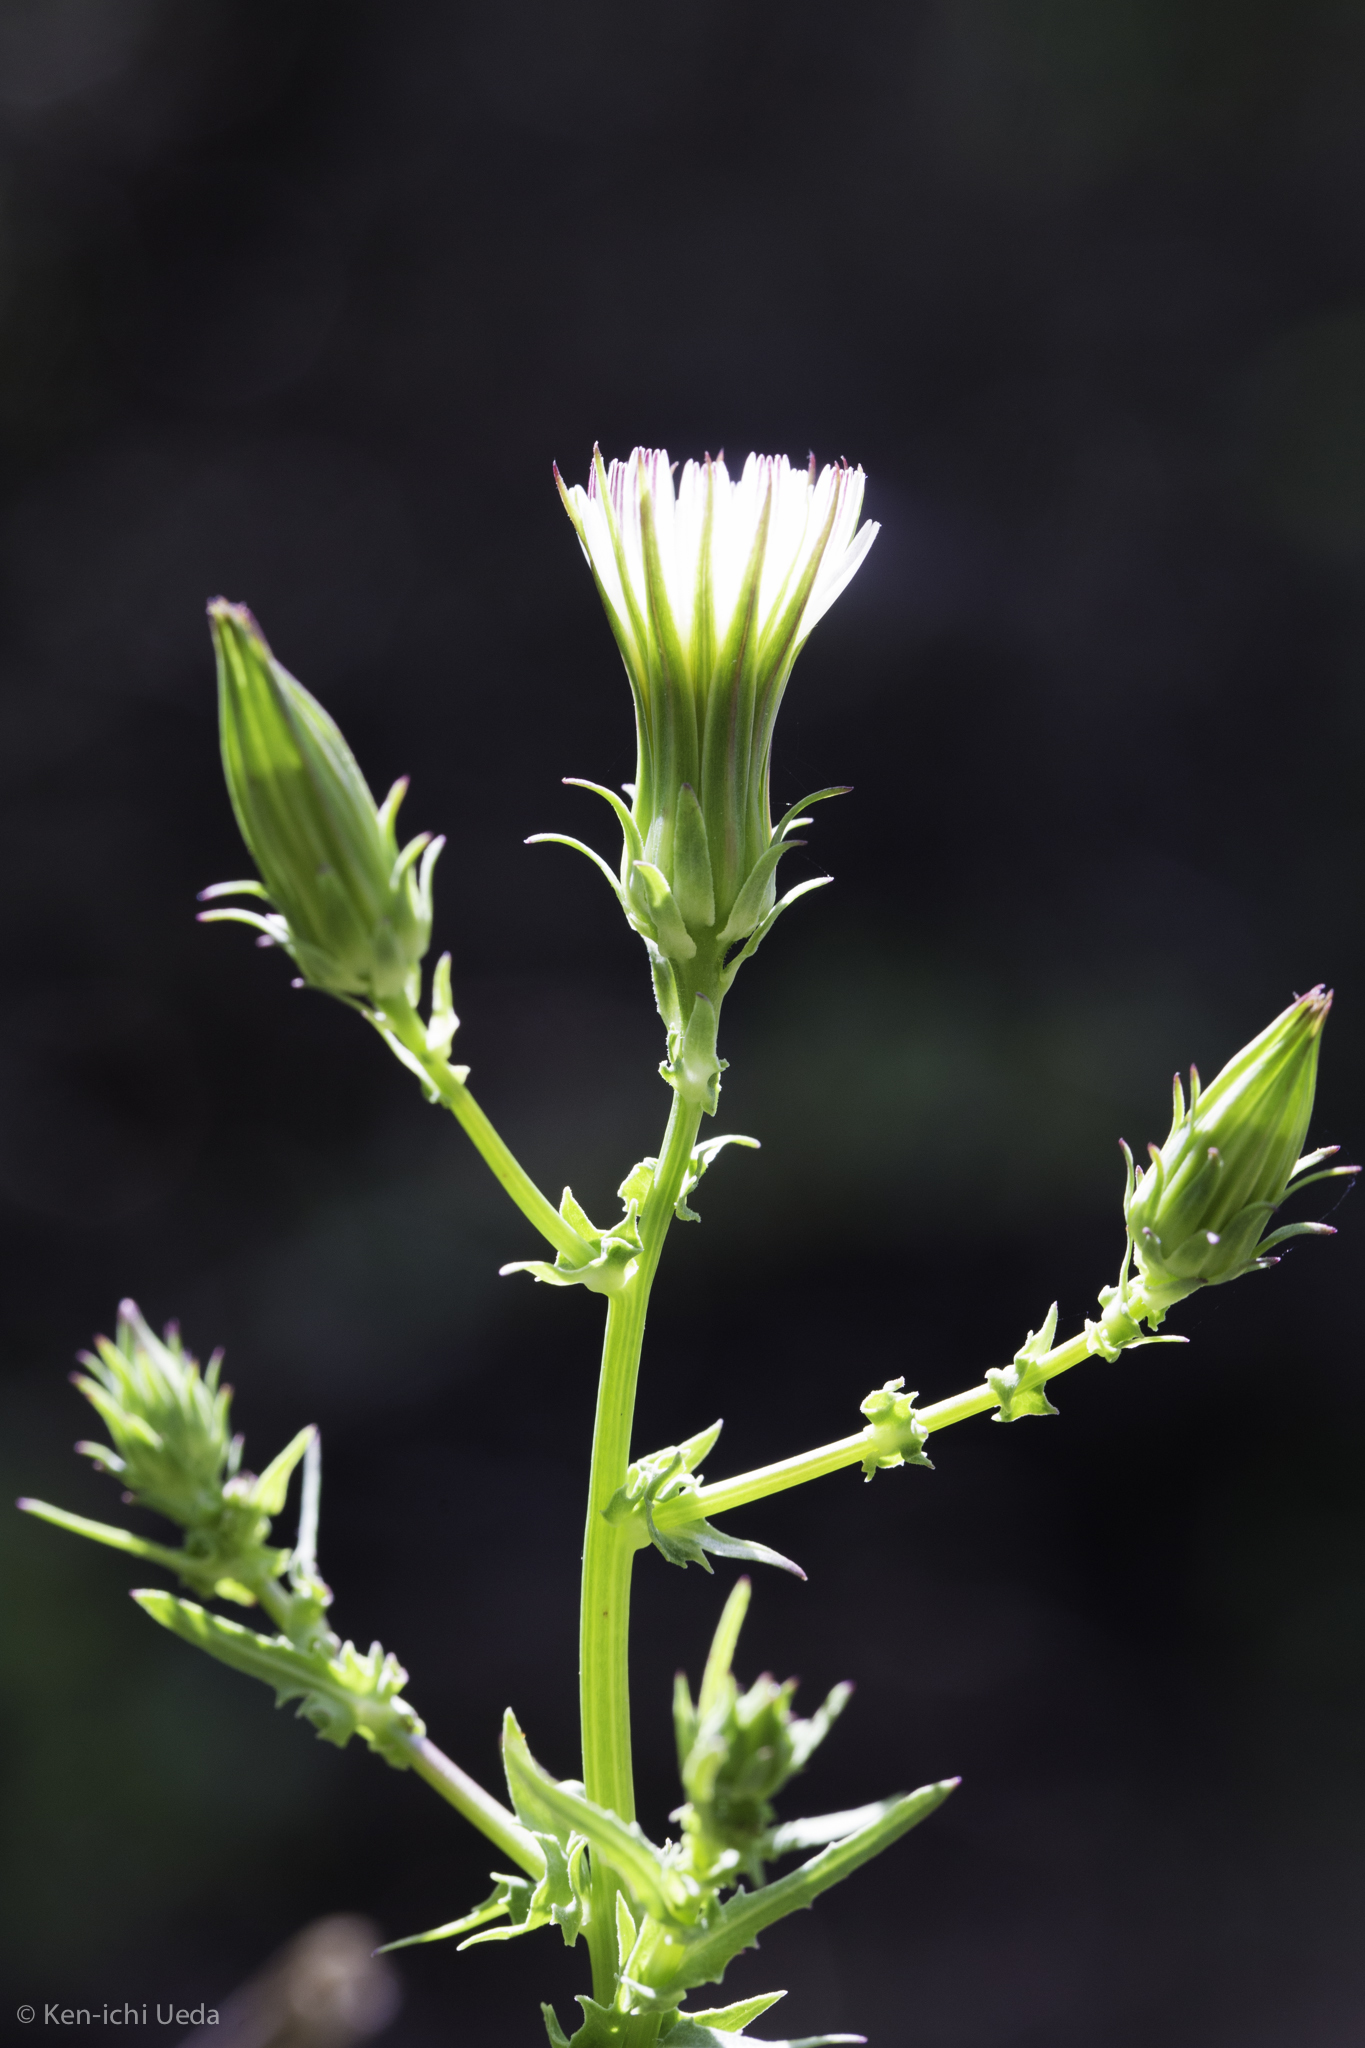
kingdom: Plantae
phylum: Tracheophyta
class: Magnoliopsida
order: Asterales
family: Asteraceae
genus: Rafinesquia
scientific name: Rafinesquia californica
